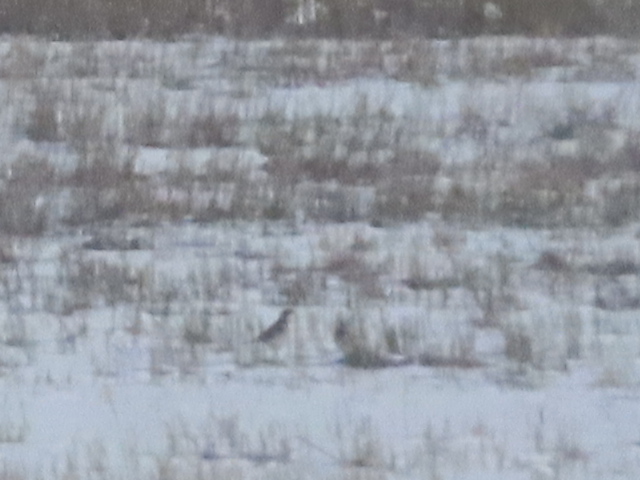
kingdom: Animalia
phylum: Chordata
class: Aves
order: Passeriformes
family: Alaudidae
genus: Eremophila
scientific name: Eremophila alpestris
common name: Horned lark
